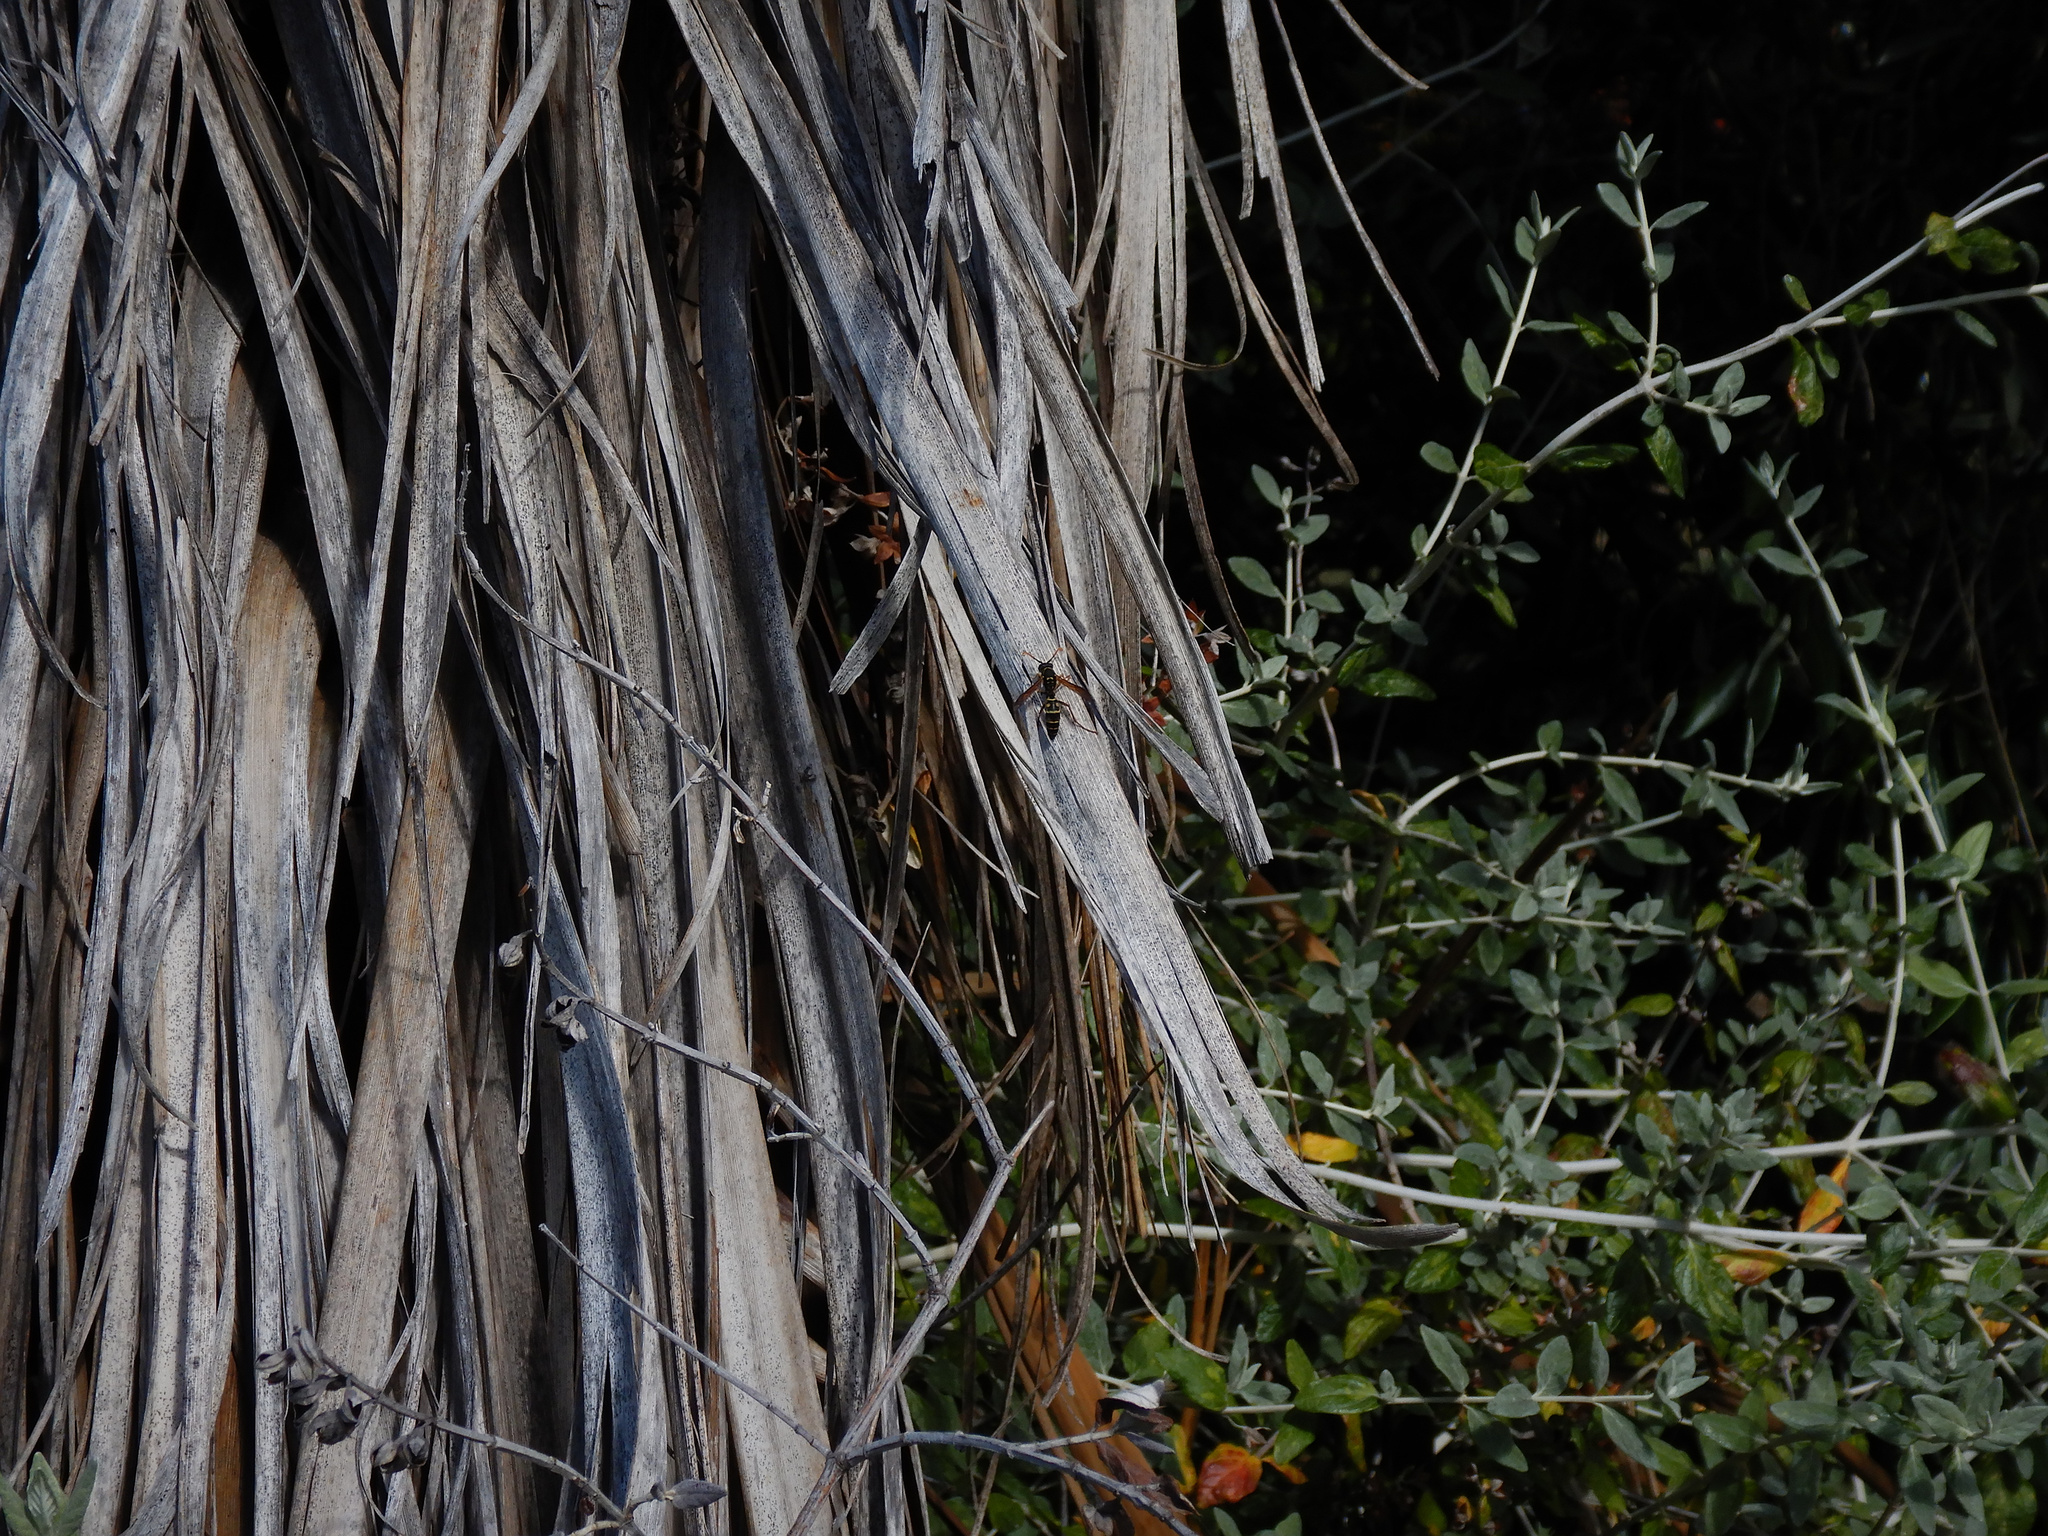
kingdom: Animalia
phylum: Arthropoda
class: Insecta
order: Hymenoptera
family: Eumenidae
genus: Polistes
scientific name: Polistes chinensis
